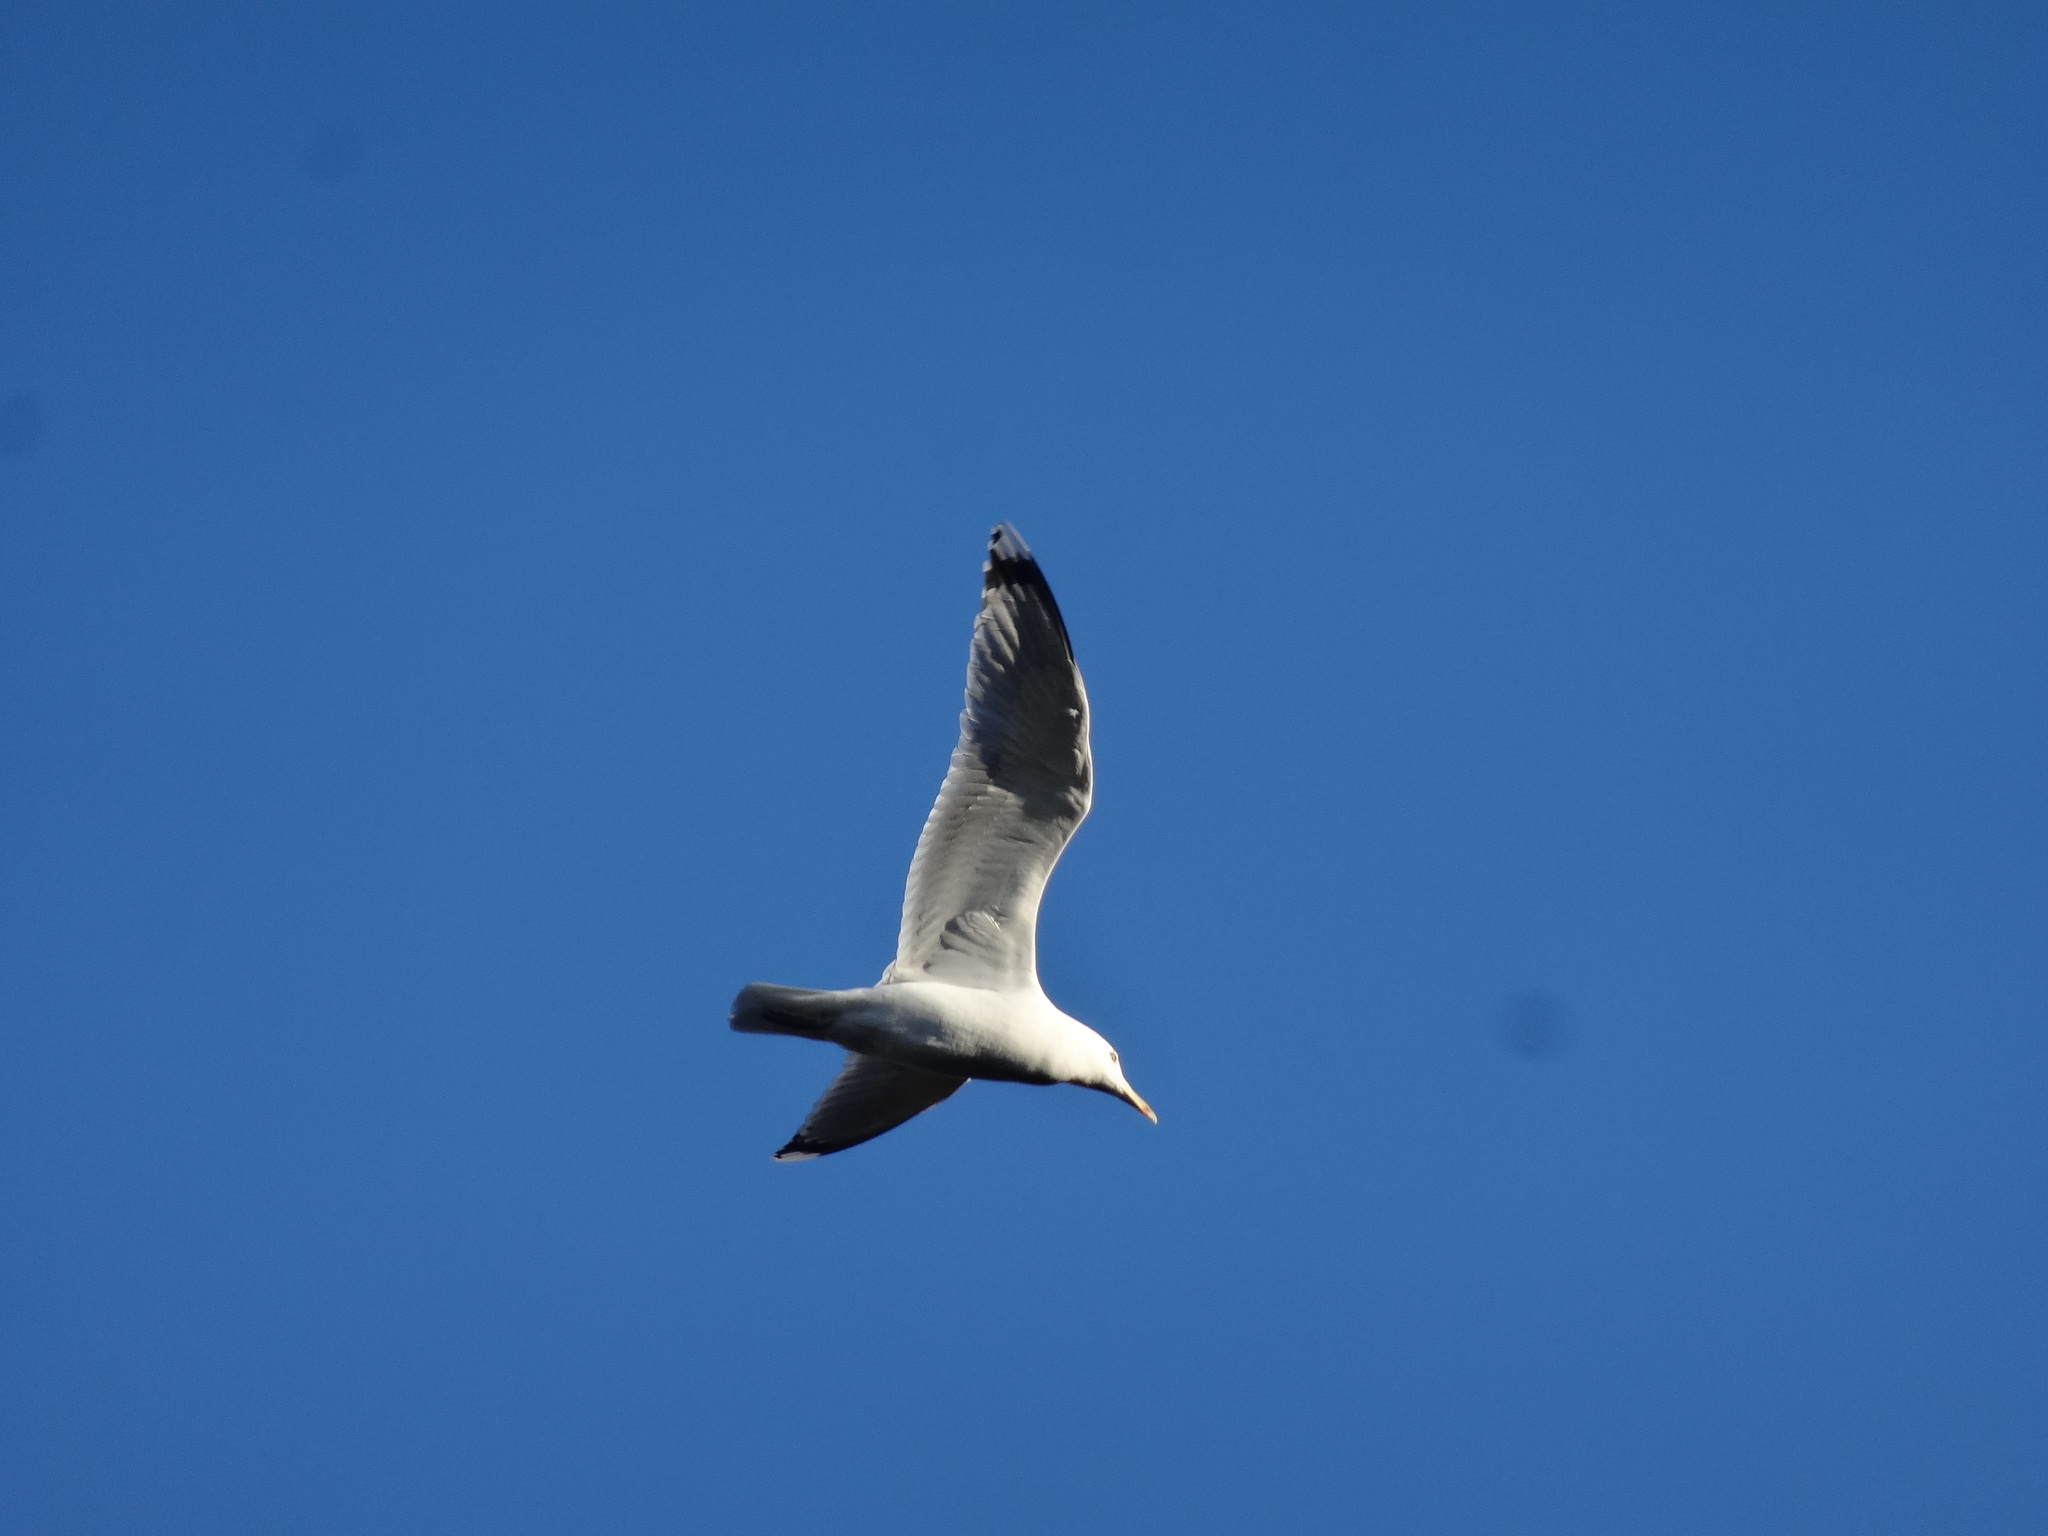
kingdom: Animalia
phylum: Chordata
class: Aves
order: Charadriiformes
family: Laridae
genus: Larus
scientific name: Larus michahellis
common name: Yellow-legged gull
